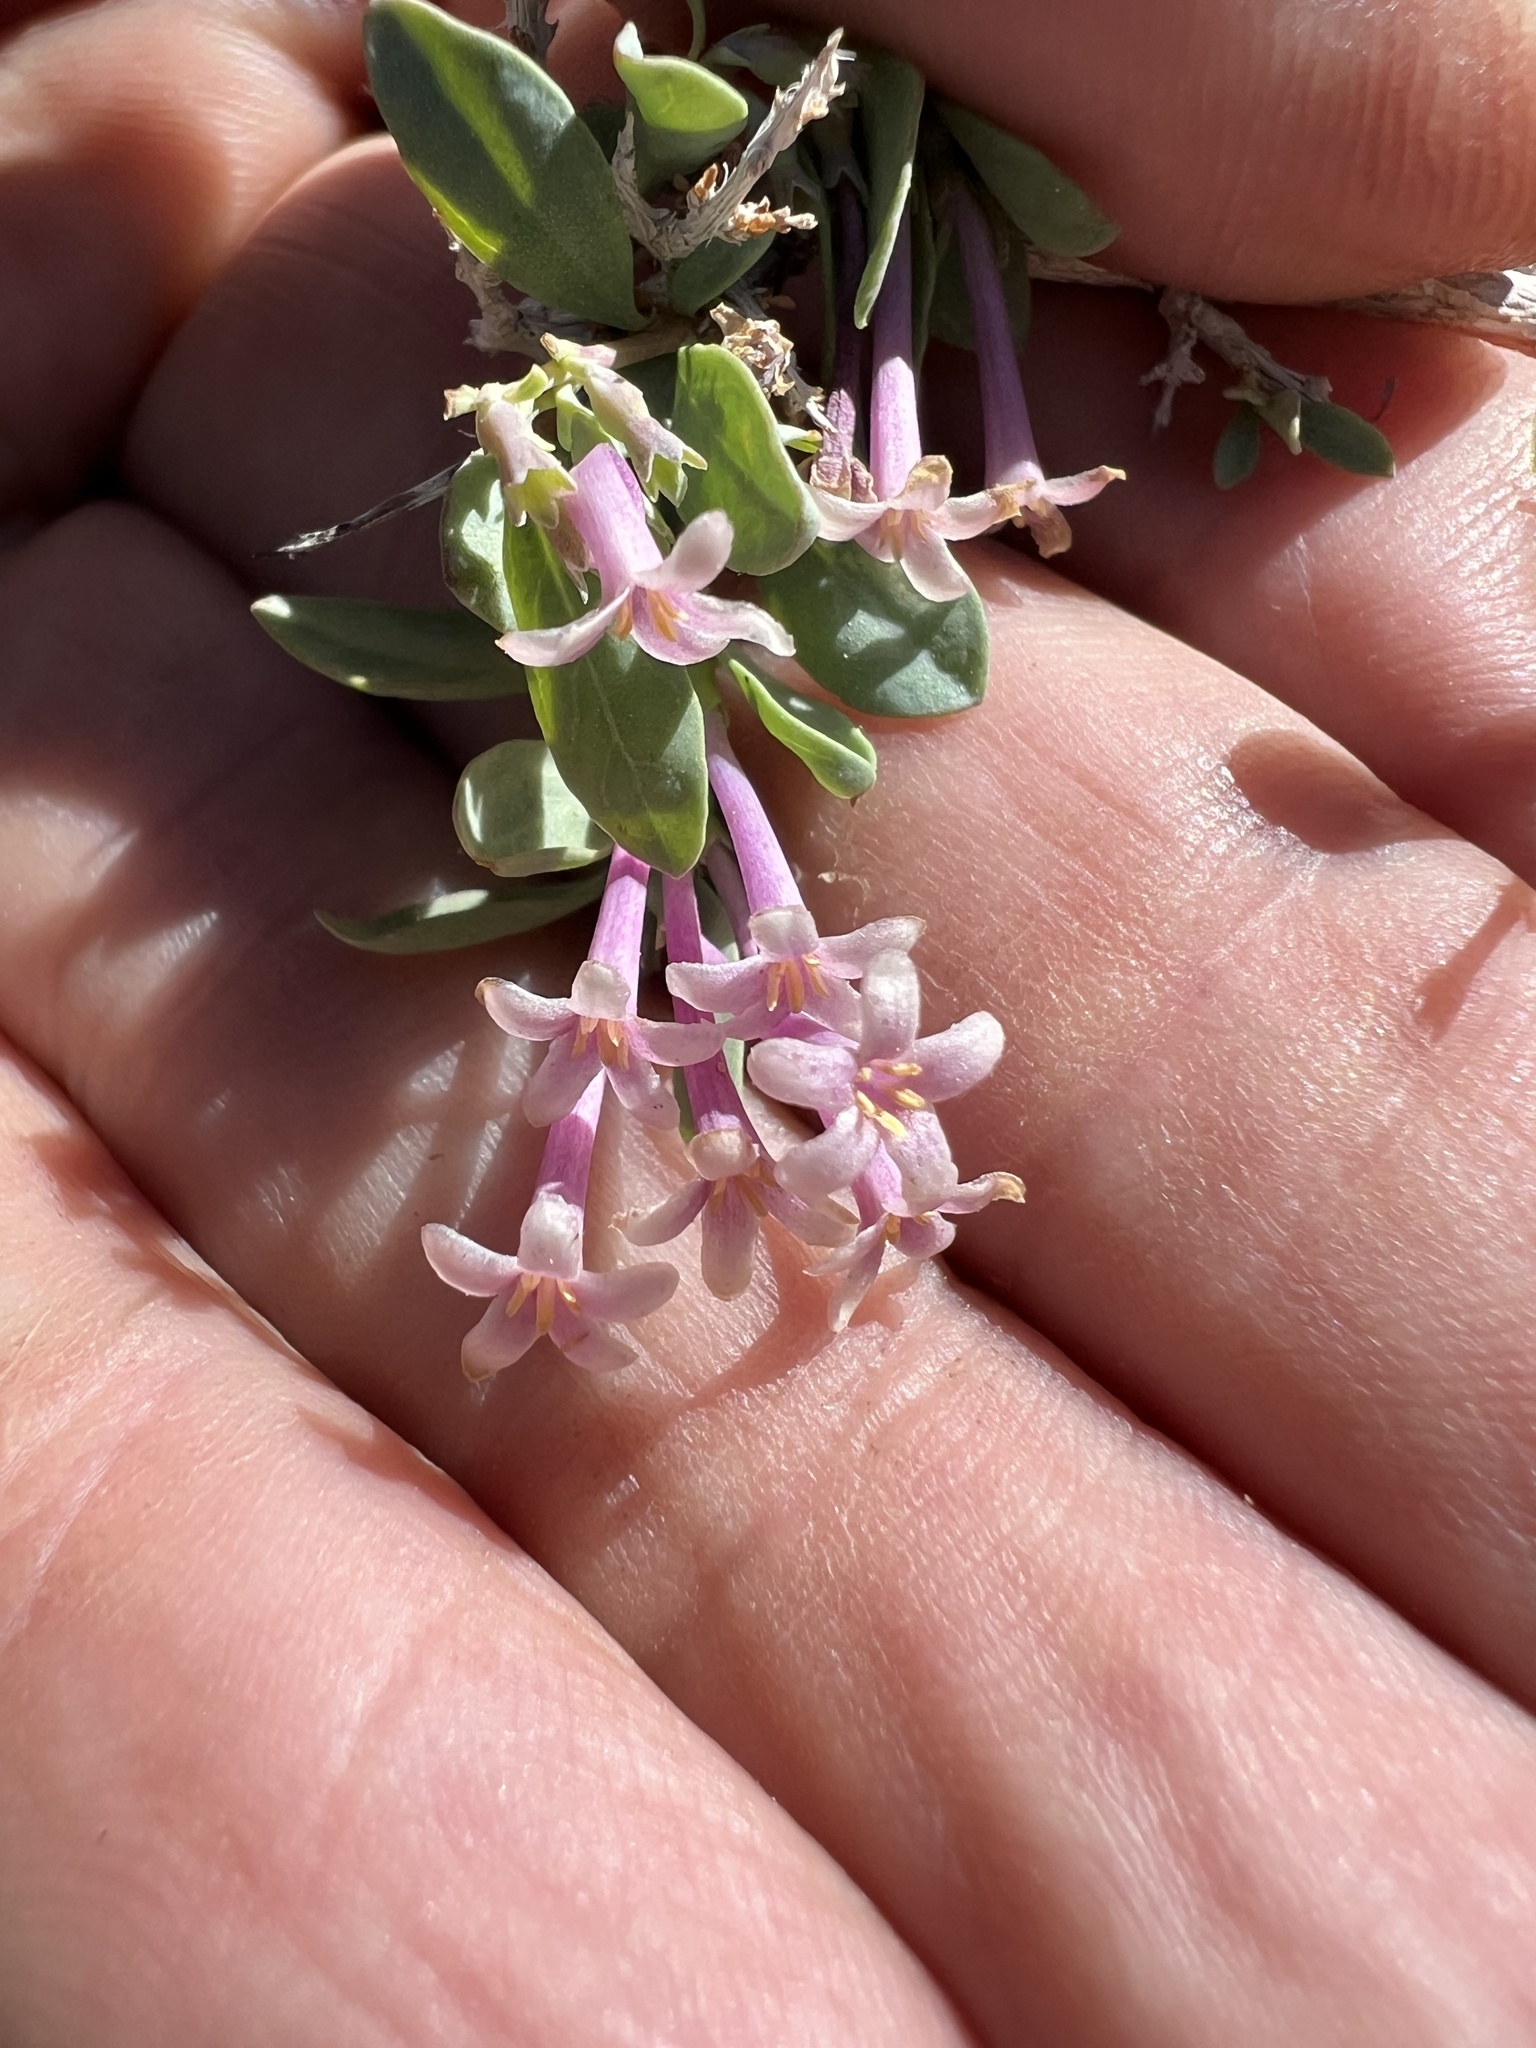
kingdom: Plantae
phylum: Tracheophyta
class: Magnoliopsida
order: Dipsacales
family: Caprifoliaceae
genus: Symphoricarpos
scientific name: Symphoricarpos longiflorus
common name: Fragrant snowberry
